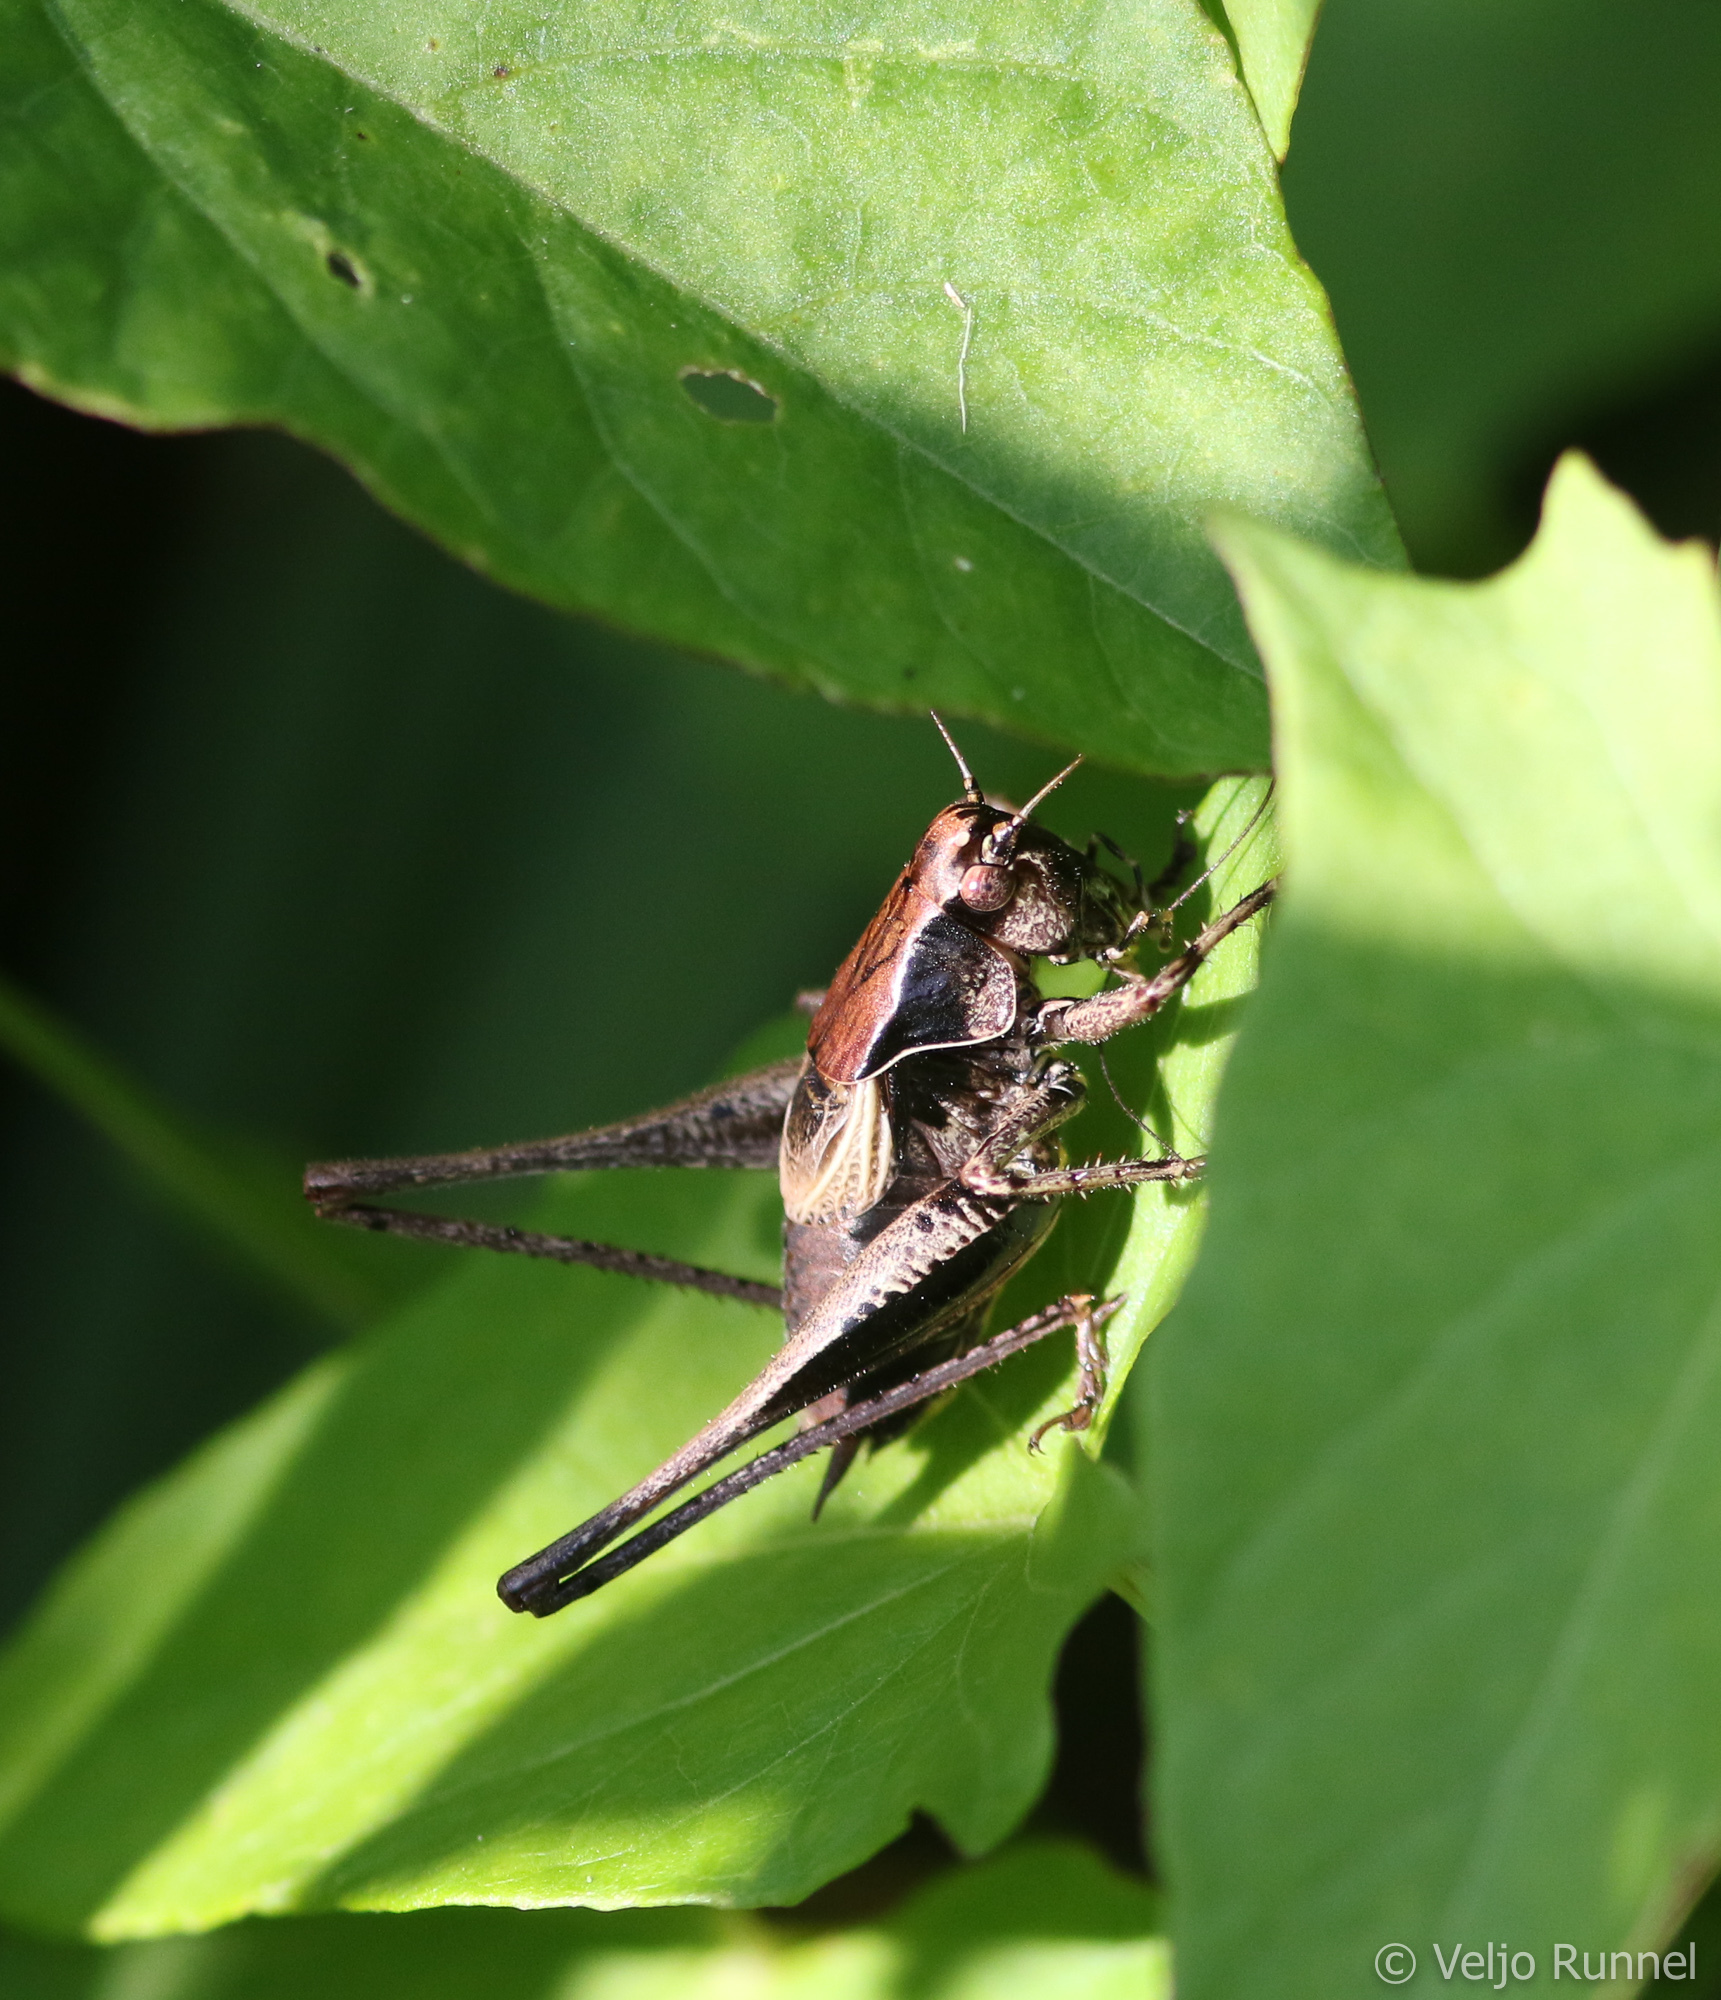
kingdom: Animalia
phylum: Arthropoda
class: Insecta
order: Orthoptera
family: Tettigoniidae
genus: Pholidoptera
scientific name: Pholidoptera griseoaptera
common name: Dark bush-cricket
